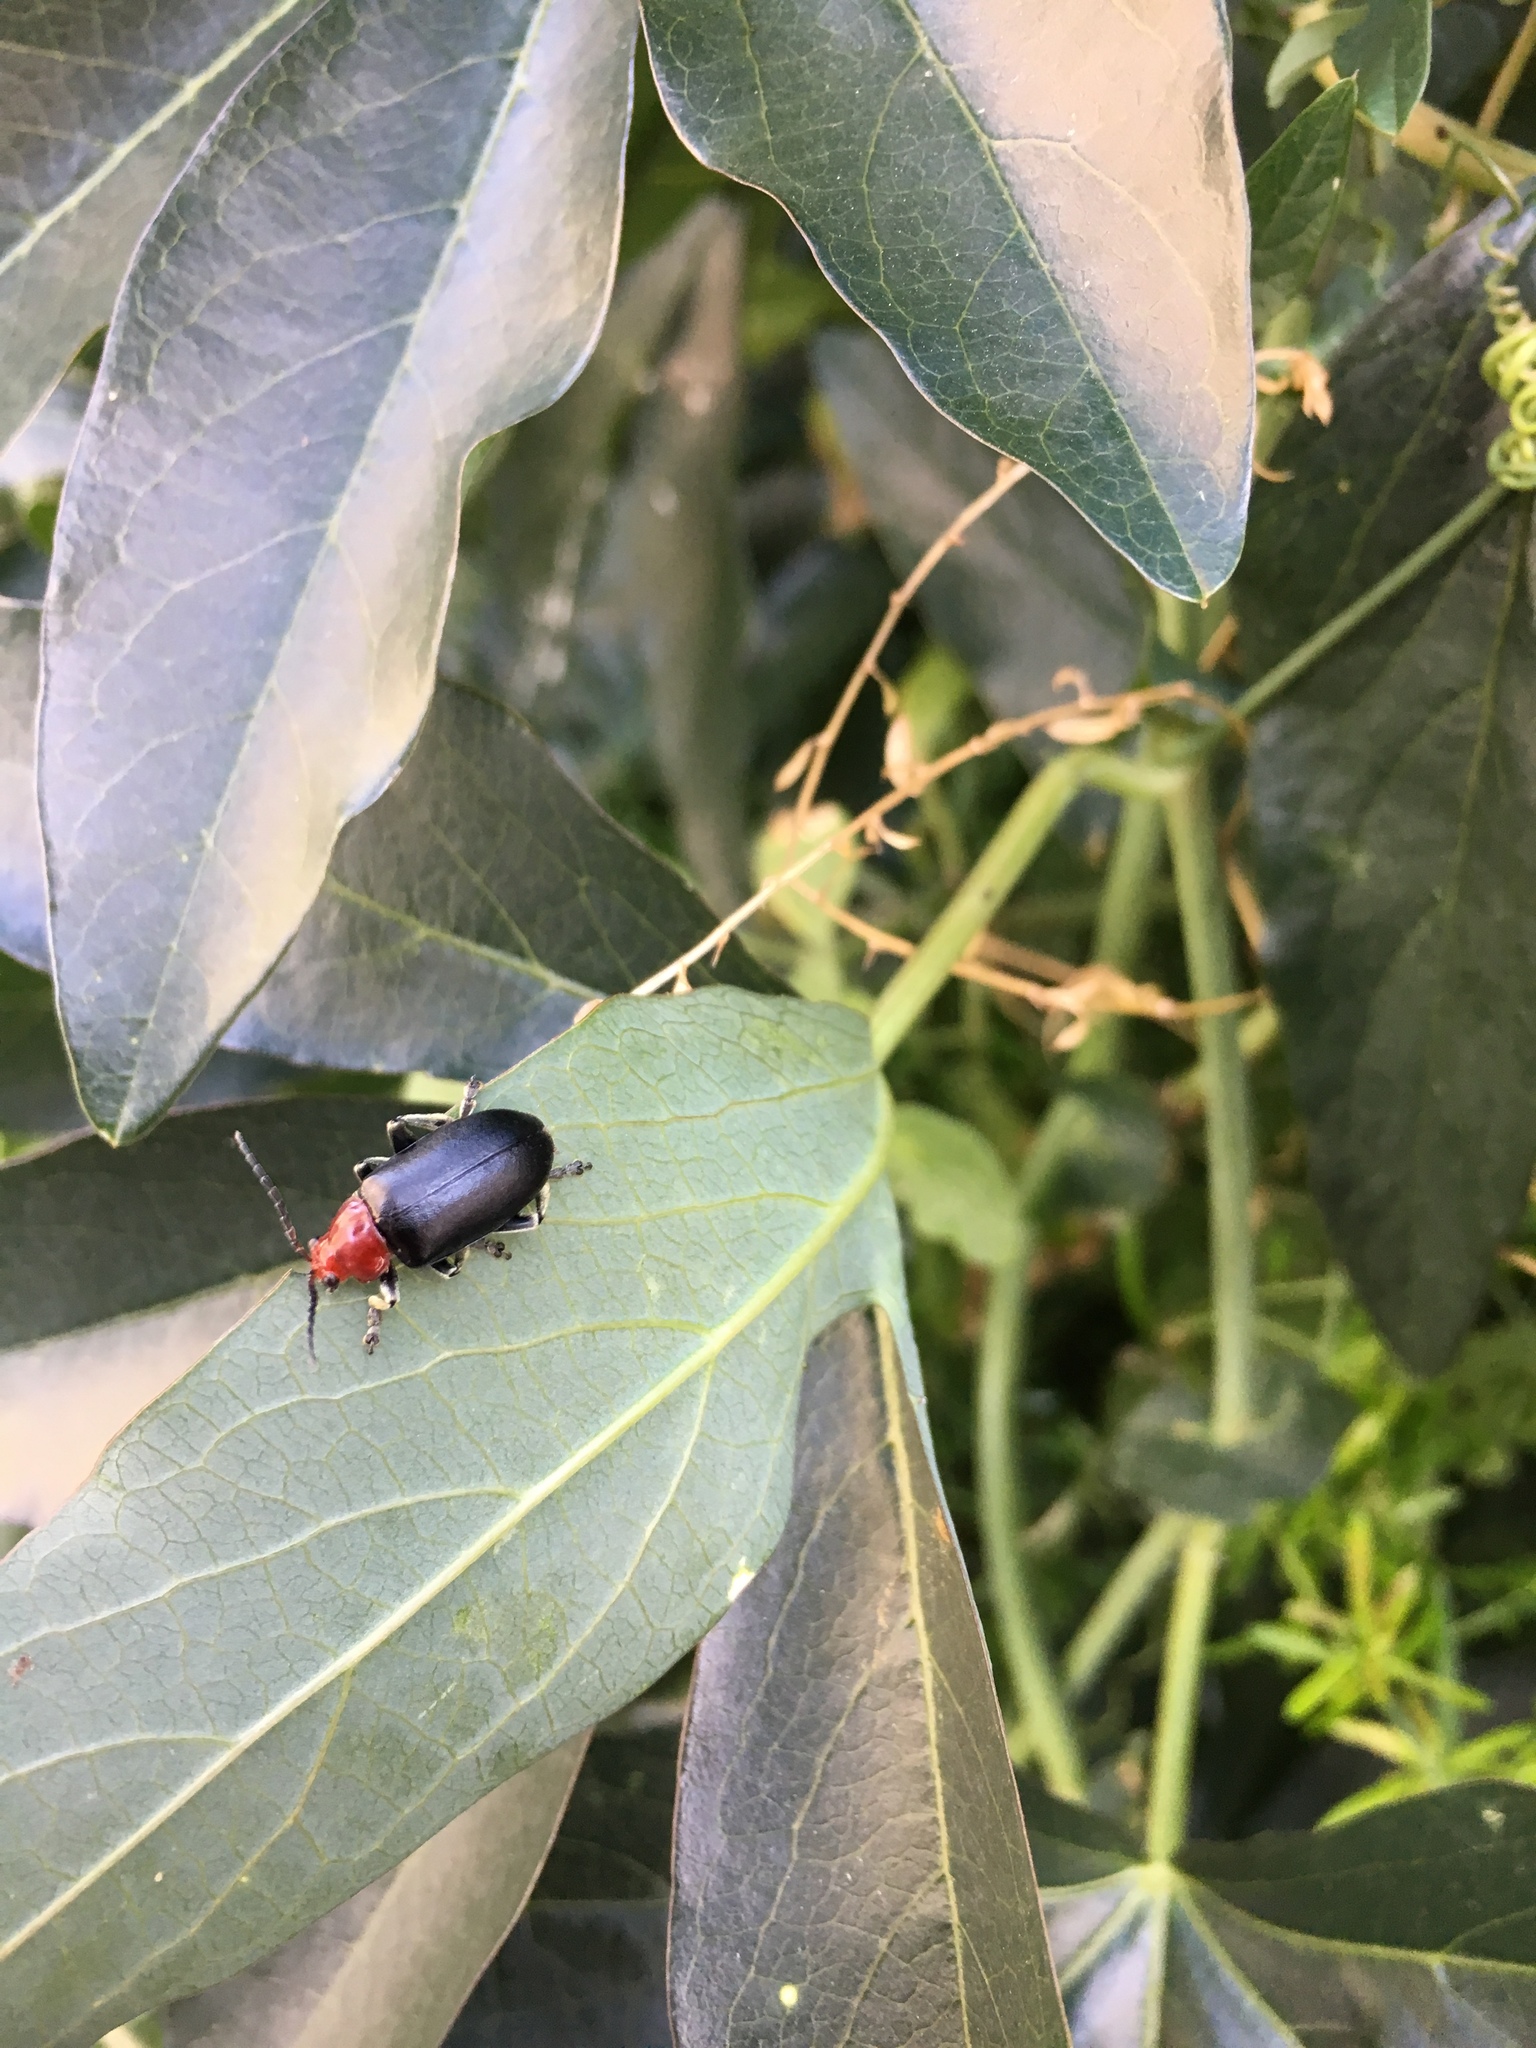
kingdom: Animalia
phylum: Arthropoda
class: Insecta
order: Coleoptera
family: Chrysomelidae
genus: Cacoscelis
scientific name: Cacoscelis
